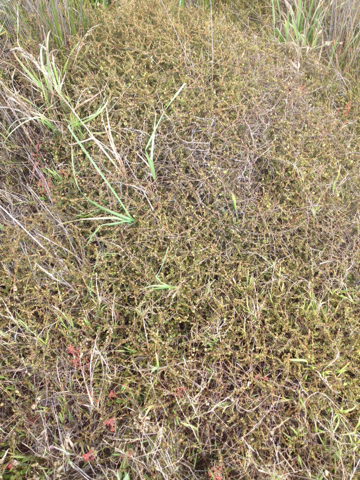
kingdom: Plantae
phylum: Tracheophyta
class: Magnoliopsida
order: Gentianales
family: Rubiaceae
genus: Coprosma
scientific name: Coprosma acerosa
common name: Sand coprosma
